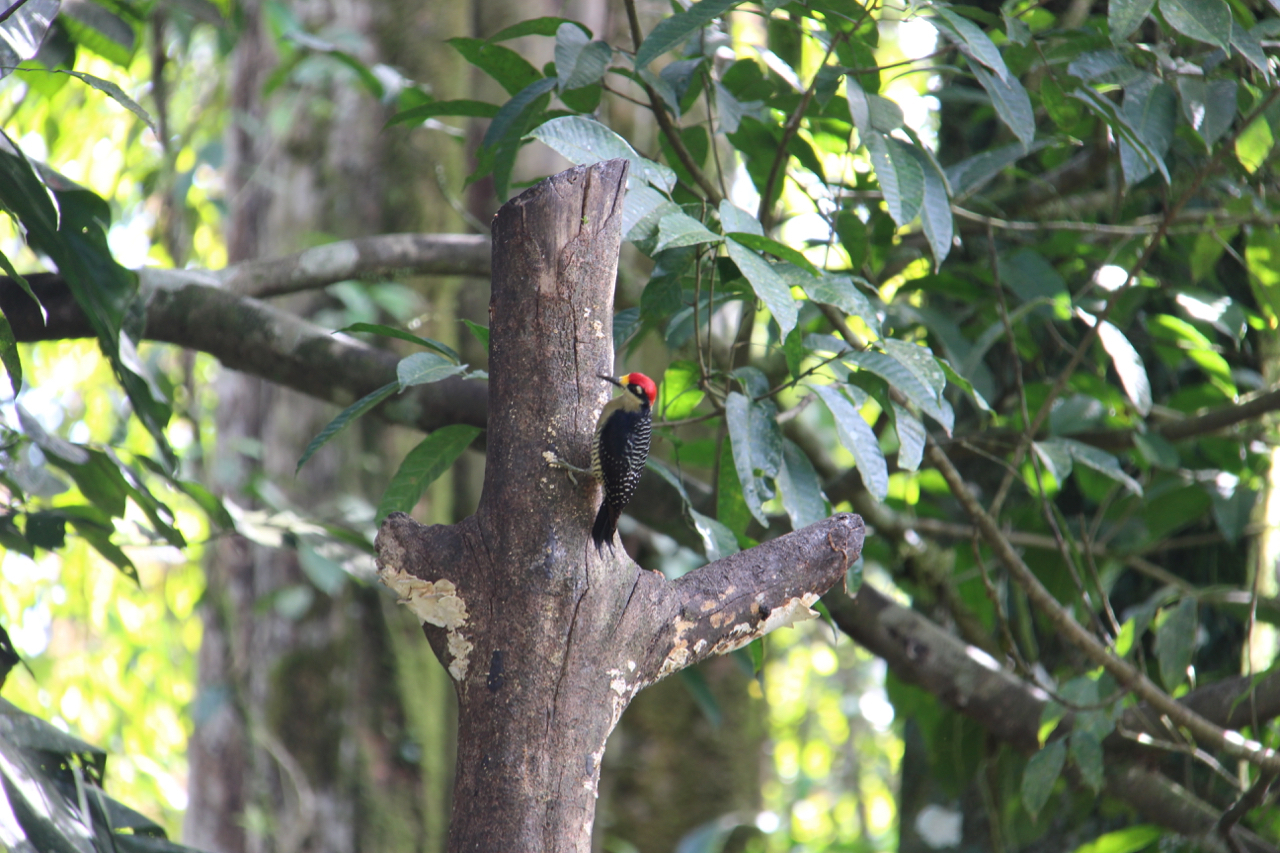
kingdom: Animalia
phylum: Chordata
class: Aves
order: Piciformes
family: Picidae
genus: Melanerpes
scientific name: Melanerpes pucherani
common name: Black-cheeked woodpecker
